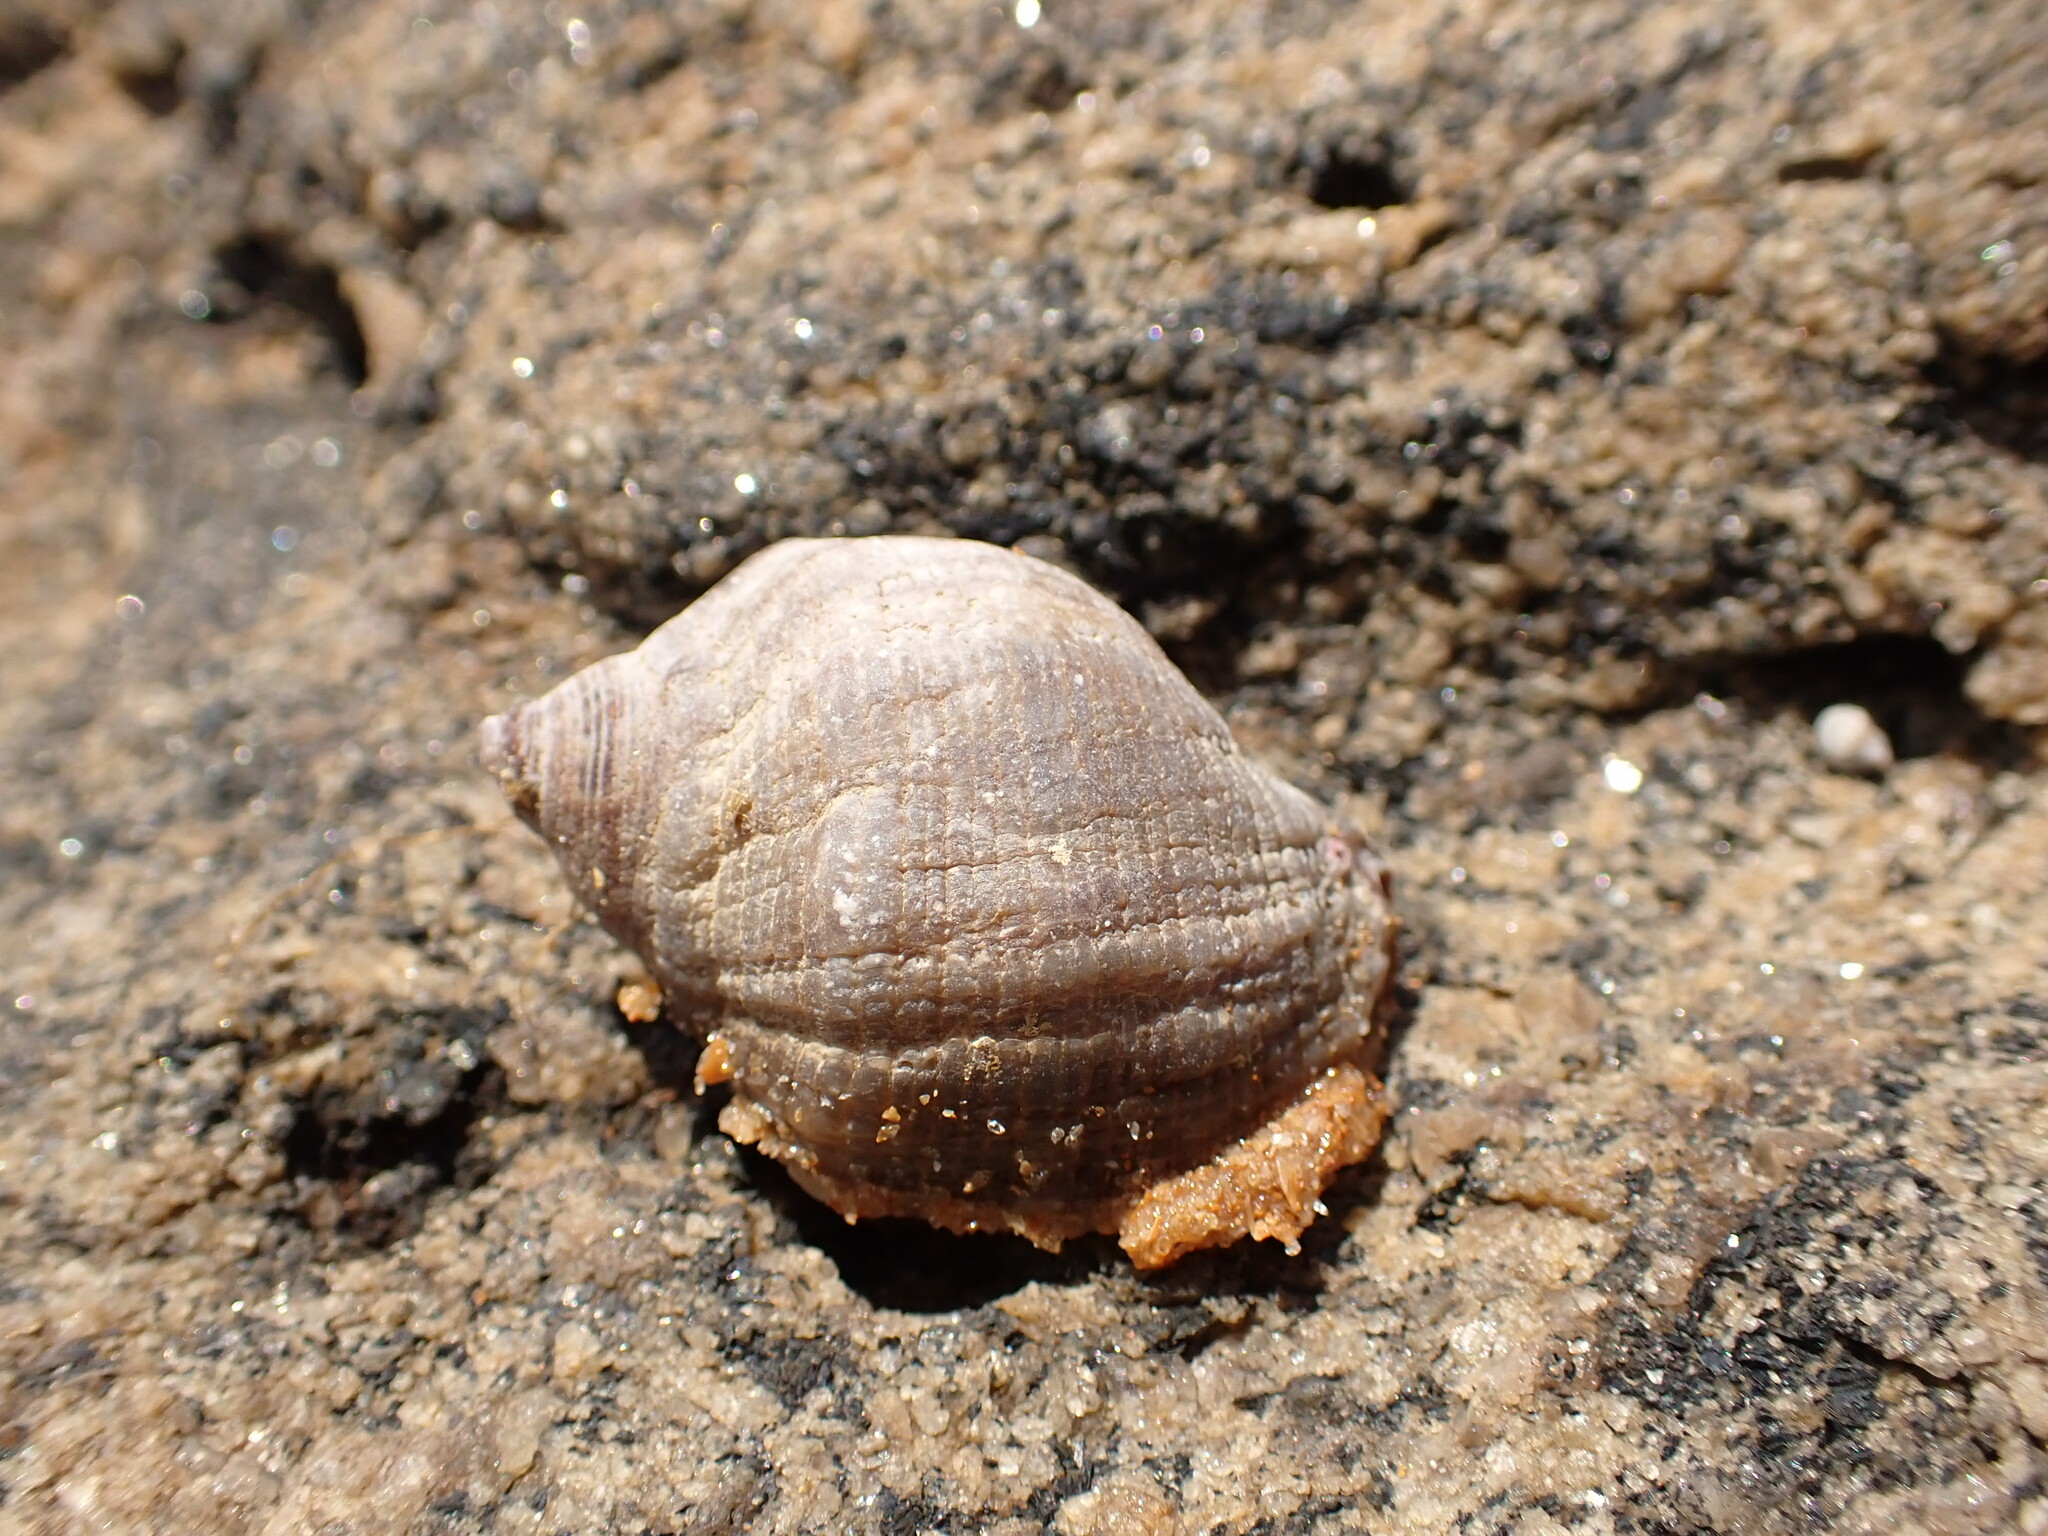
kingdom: Animalia
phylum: Mollusca
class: Gastropoda
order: Neogastropoda
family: Muricidae
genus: Stramonita
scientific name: Stramonita brasiliensis
